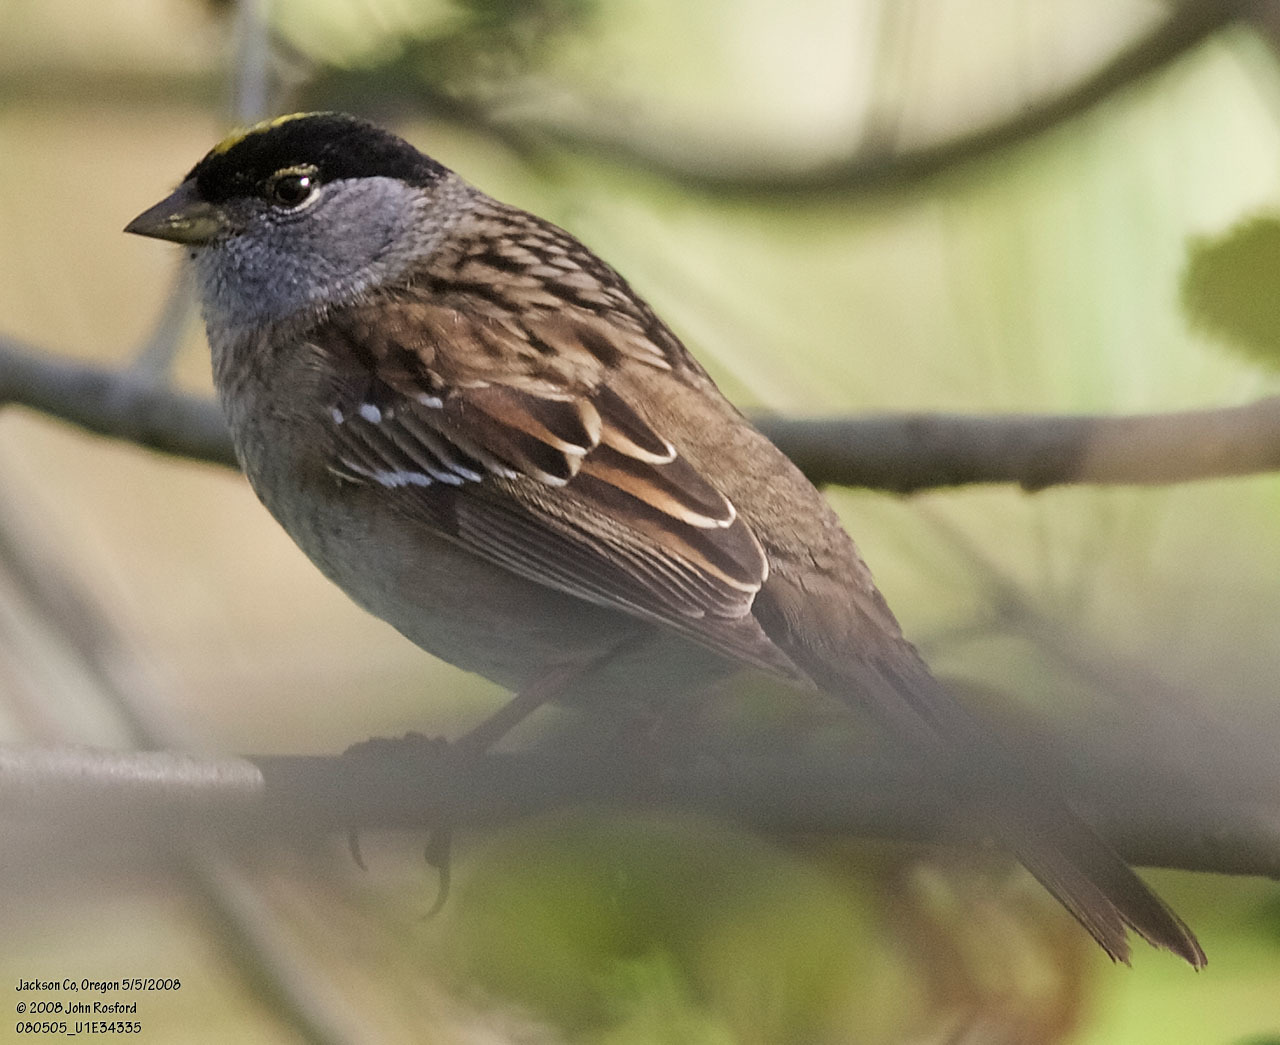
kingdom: Animalia
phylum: Chordata
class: Aves
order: Passeriformes
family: Passerellidae
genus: Zonotrichia
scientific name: Zonotrichia atricapilla
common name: Golden-crowned sparrow
